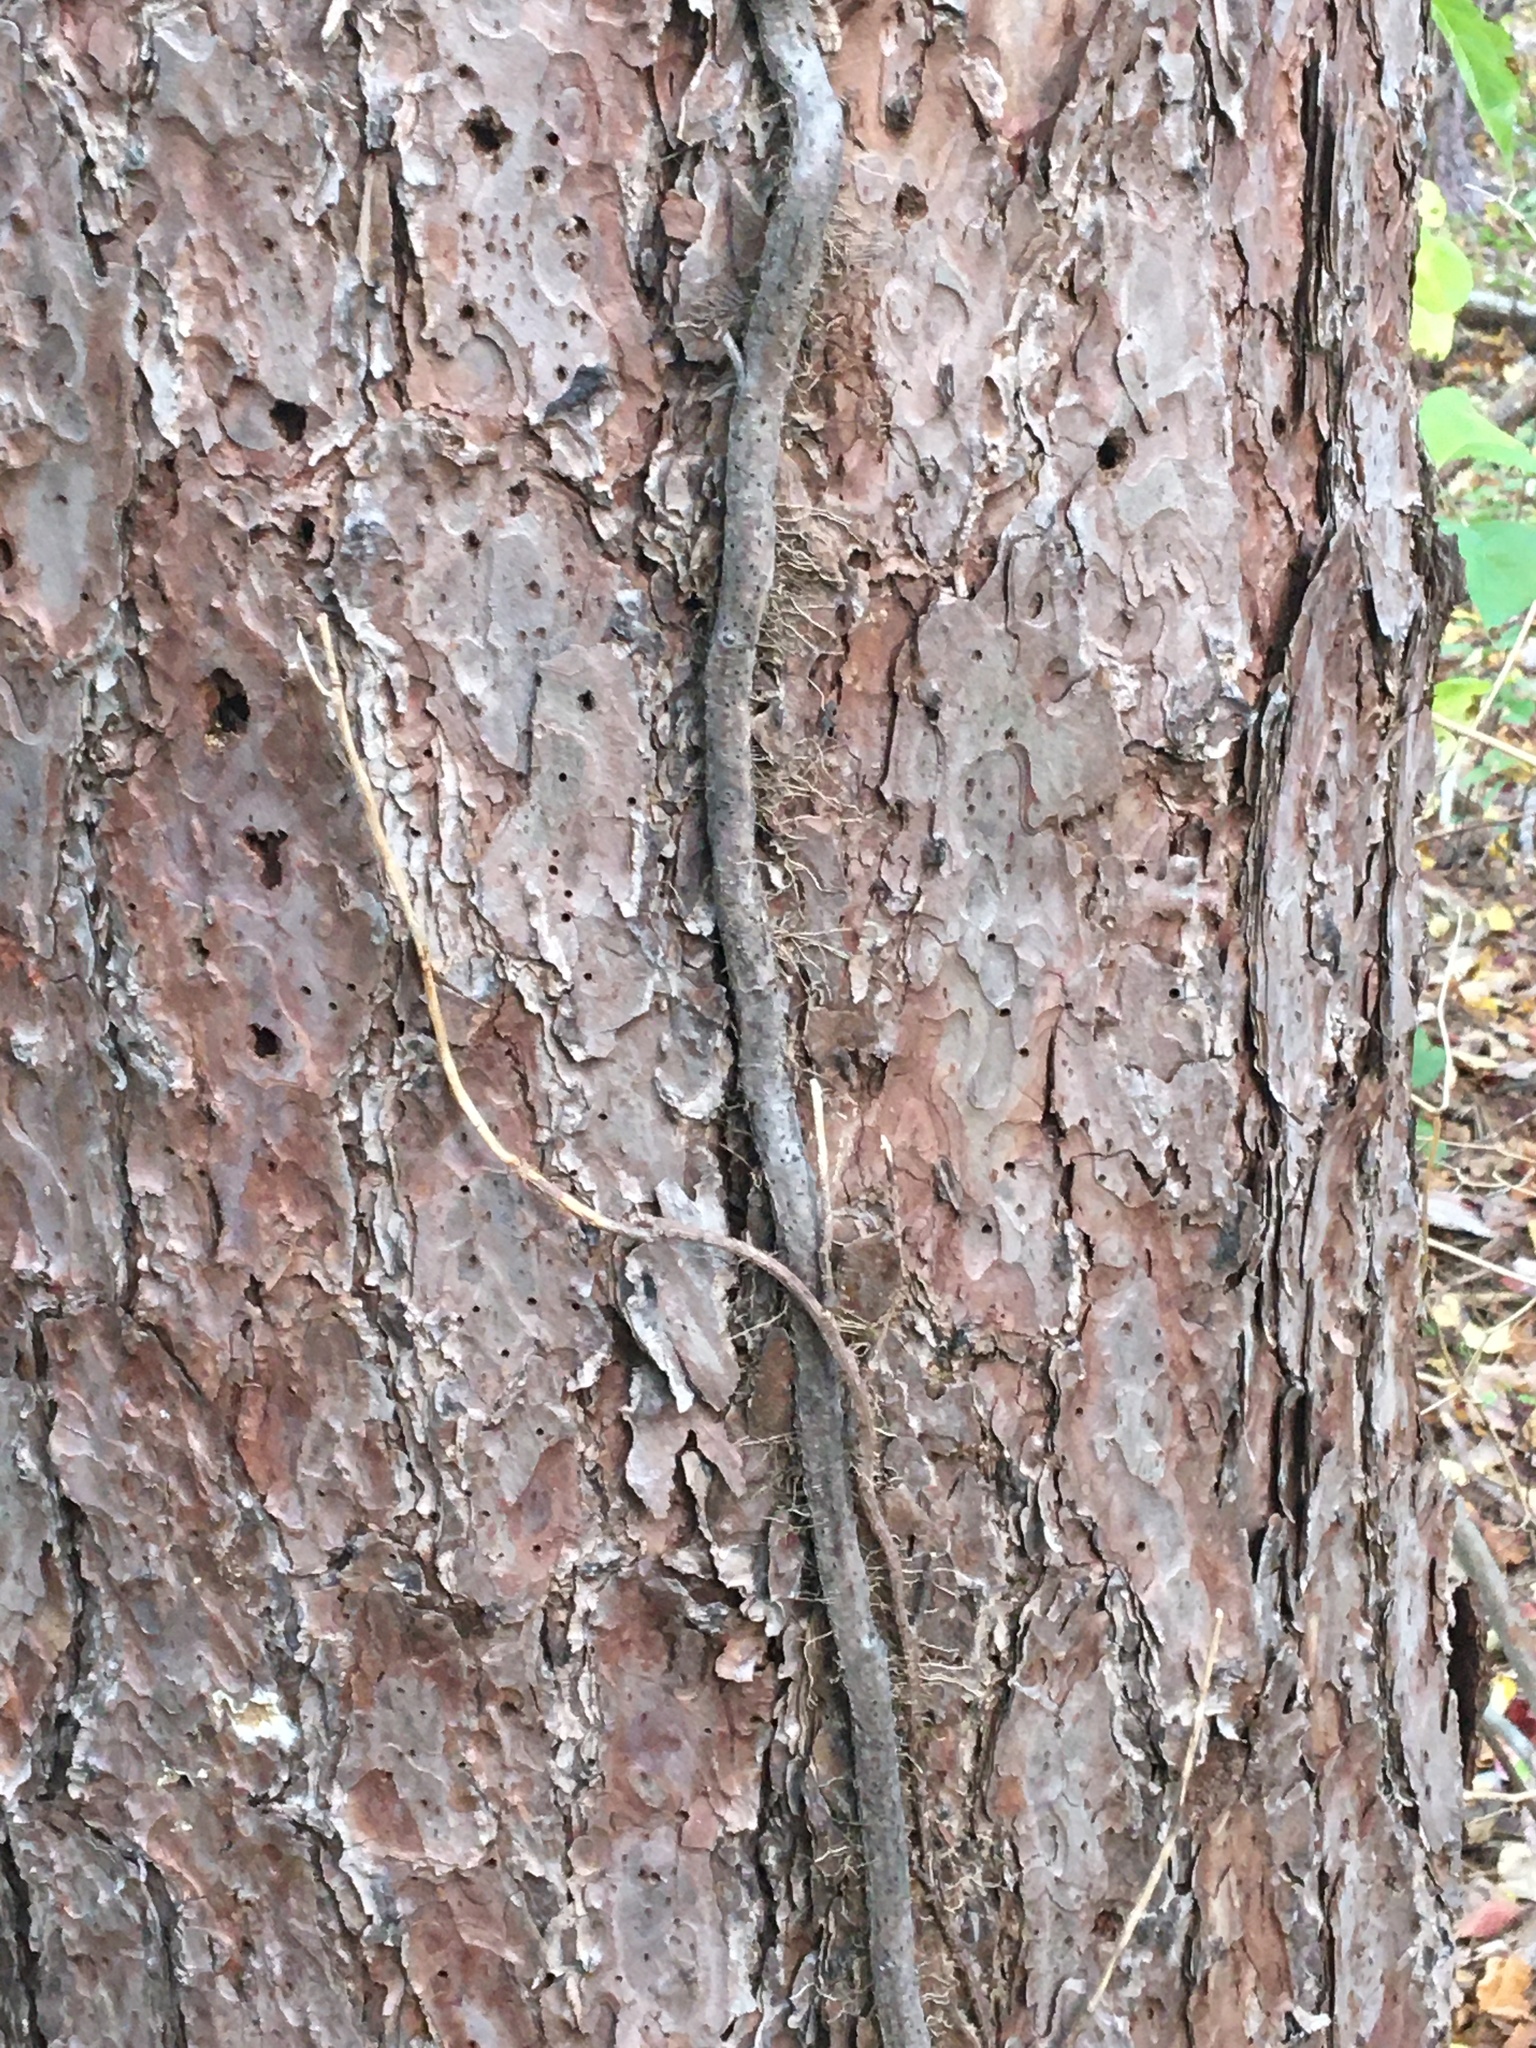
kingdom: Plantae
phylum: Tracheophyta
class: Magnoliopsida
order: Sapindales
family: Anacardiaceae
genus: Toxicodendron
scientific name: Toxicodendron radicans
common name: Poison ivy
